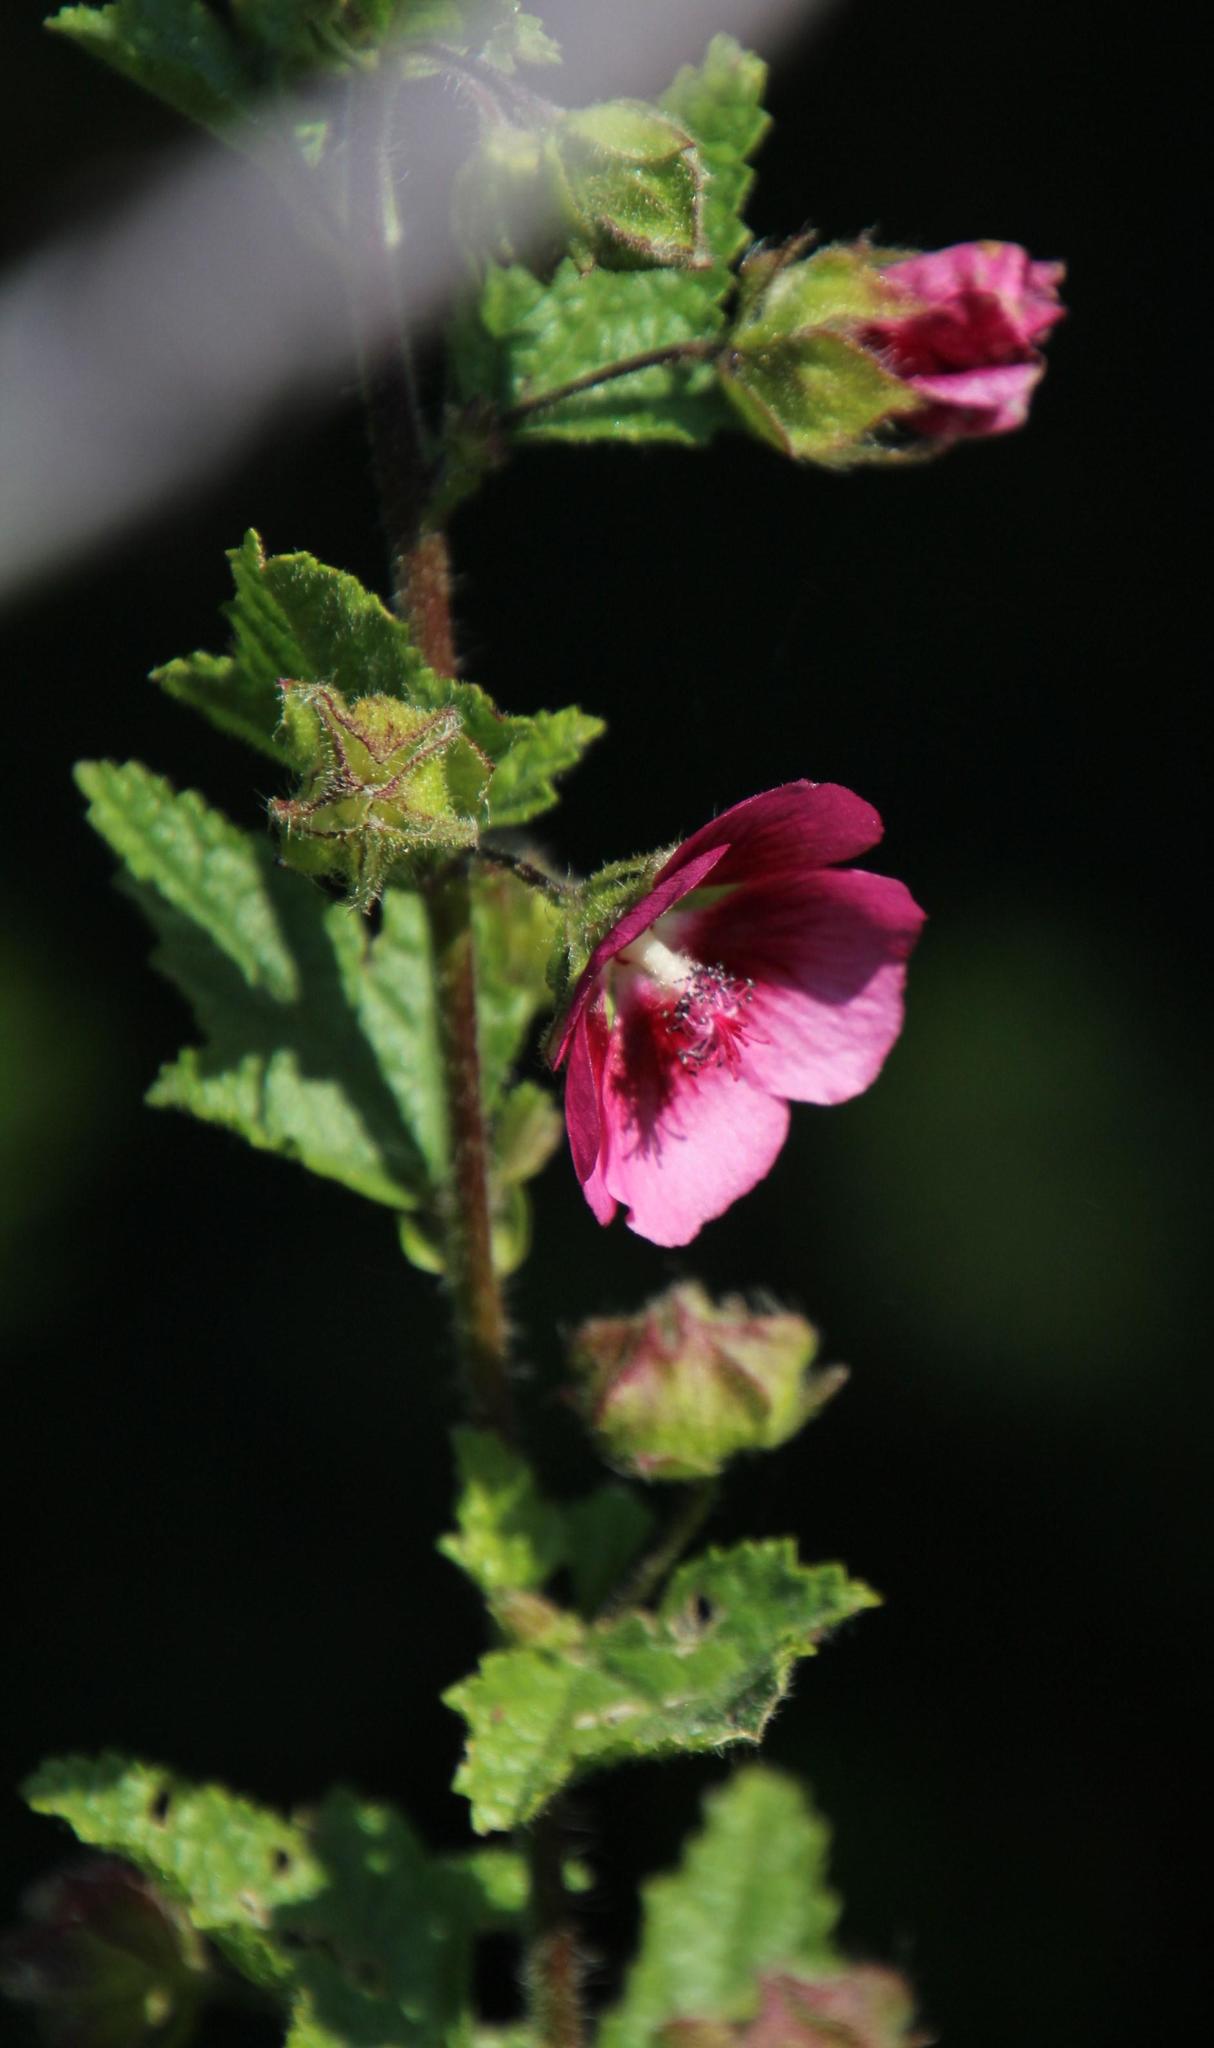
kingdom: Plantae
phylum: Tracheophyta
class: Magnoliopsida
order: Malvales
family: Malvaceae
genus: Anisodontea
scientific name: Anisodontea scabrosa
